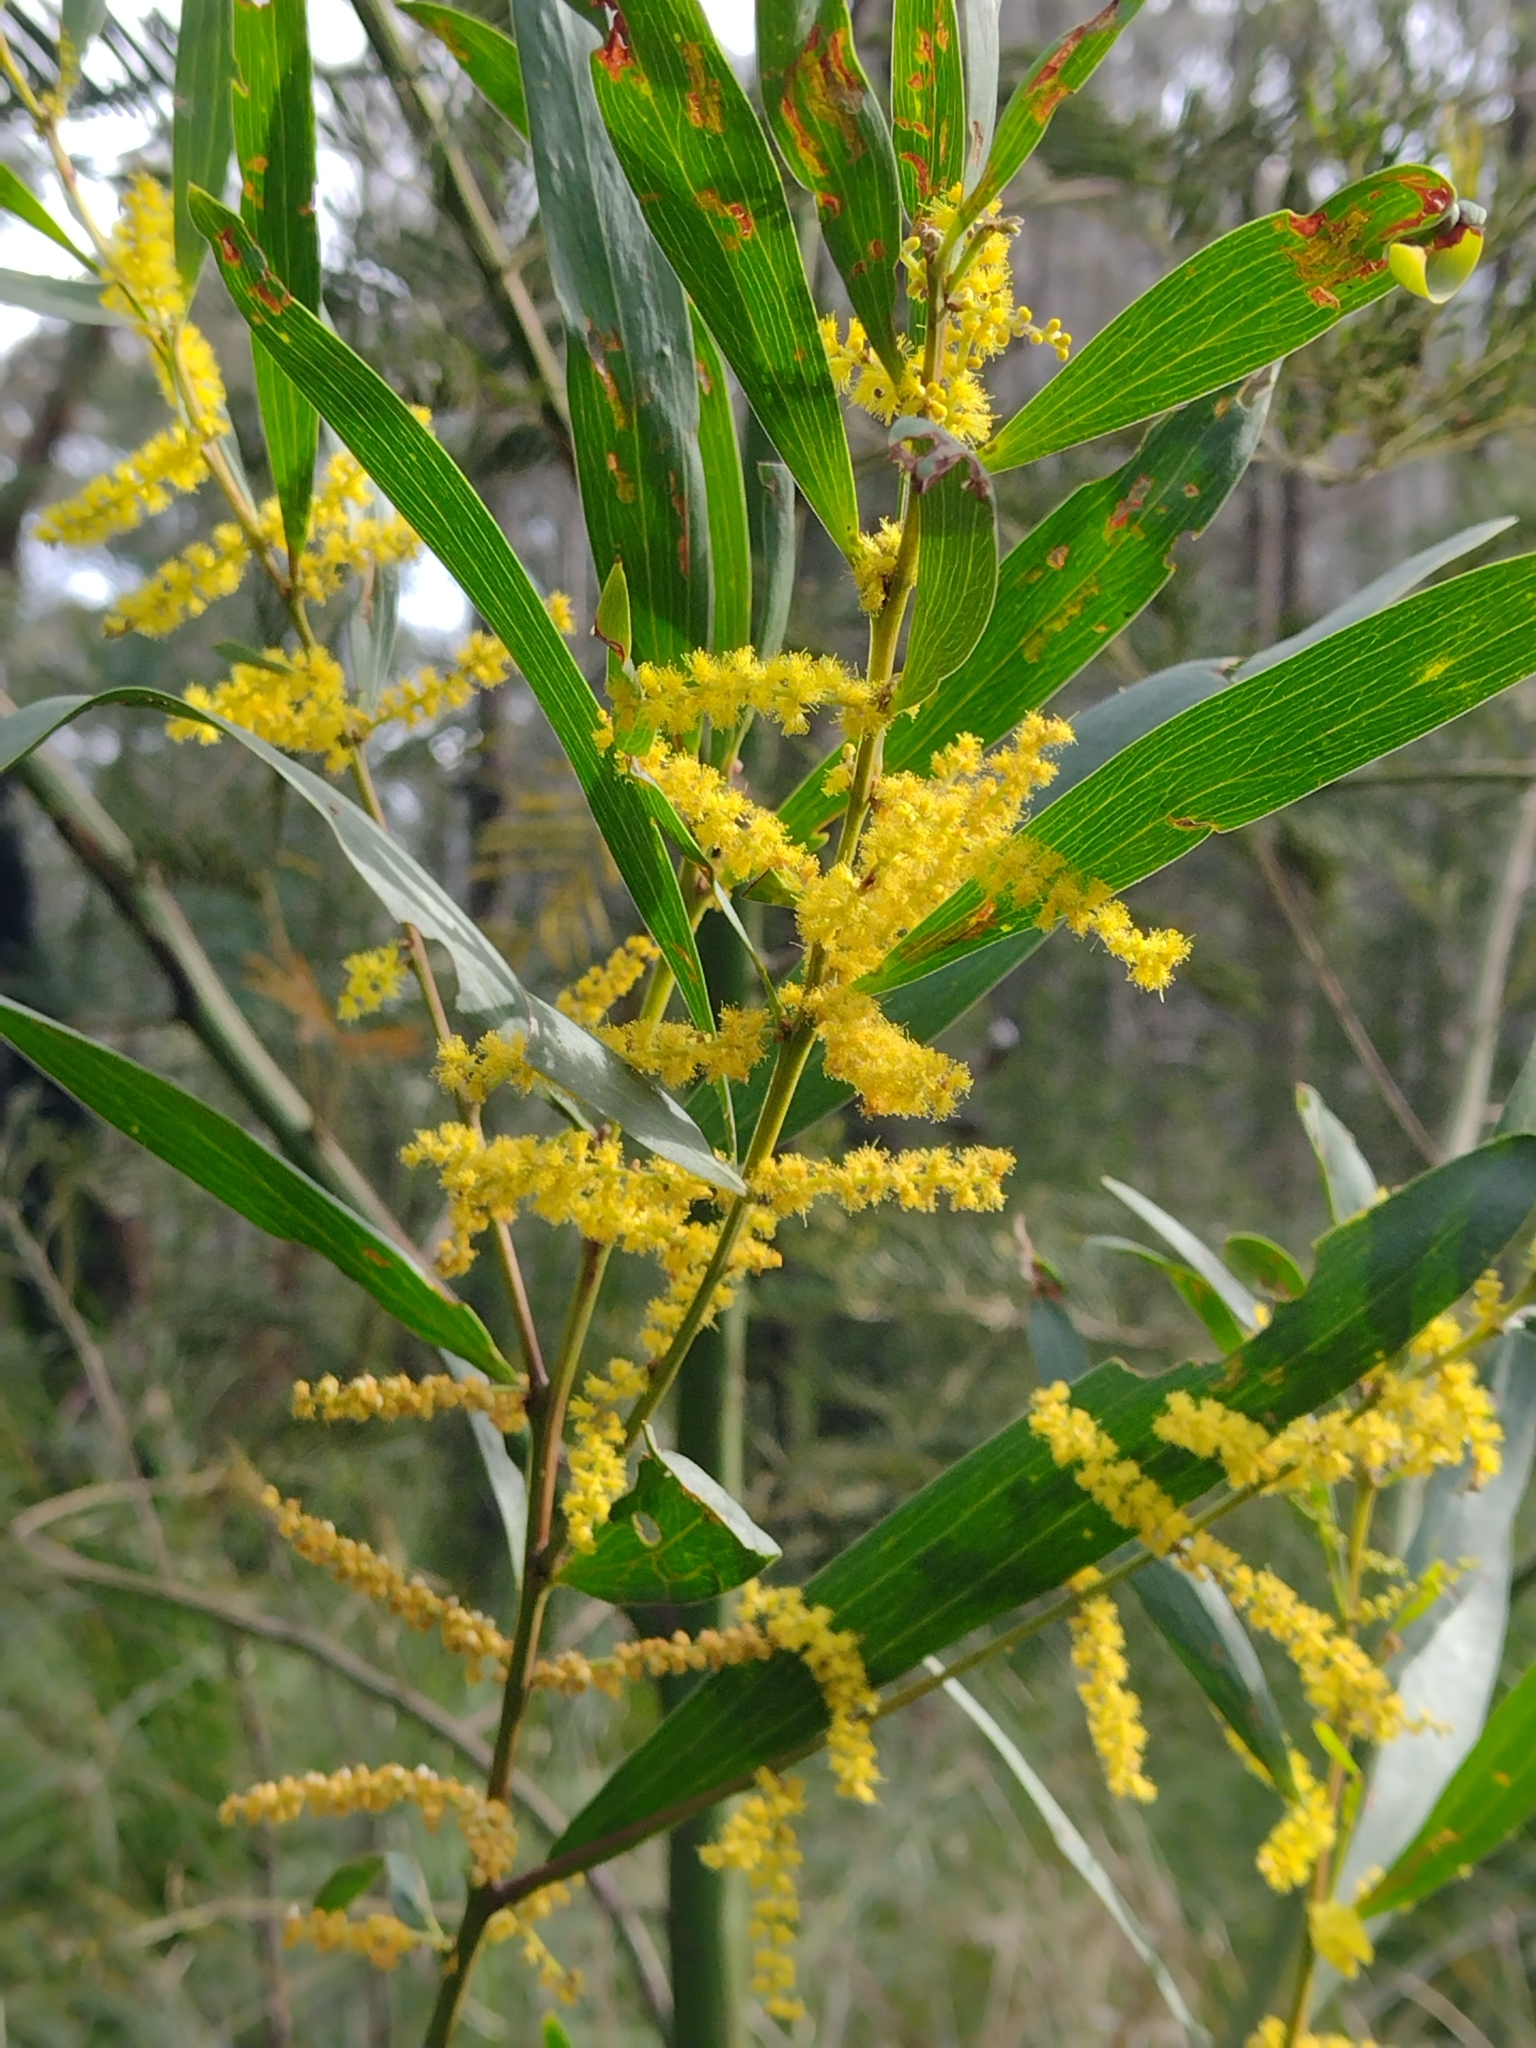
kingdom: Plantae
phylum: Tracheophyta
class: Magnoliopsida
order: Fabales
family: Fabaceae
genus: Acacia
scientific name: Acacia longifolia
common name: Sydney golden wattle
